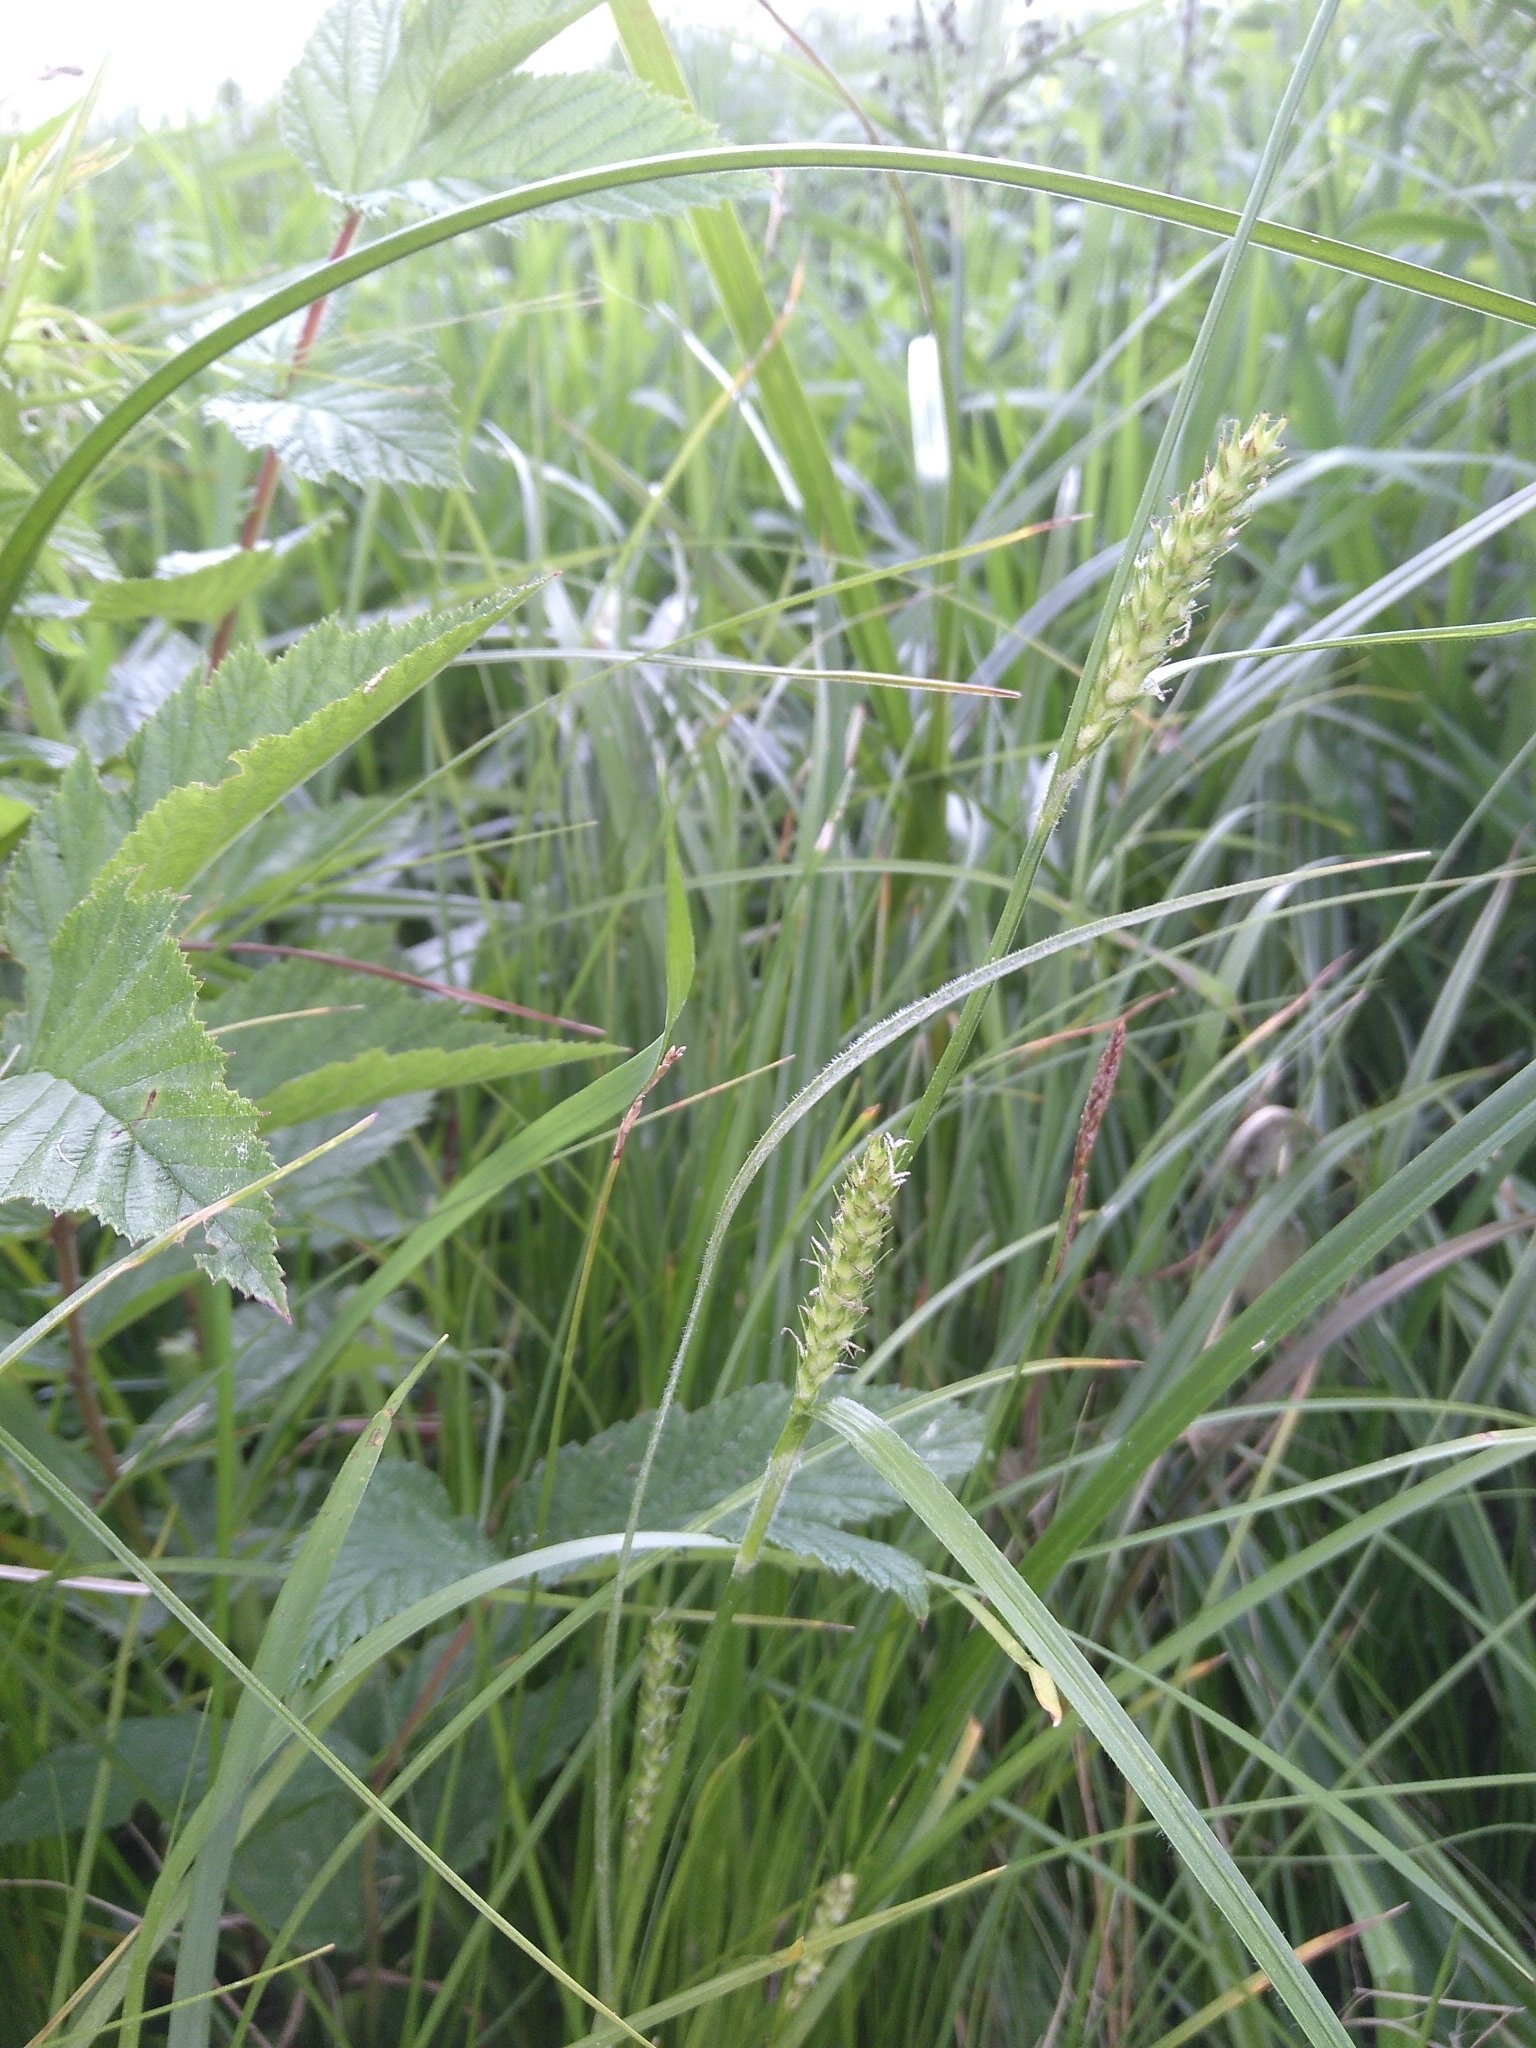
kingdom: Plantae
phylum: Tracheophyta
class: Liliopsida
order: Poales
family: Cyperaceae
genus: Carex
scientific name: Carex hirta
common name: Hairy sedge
